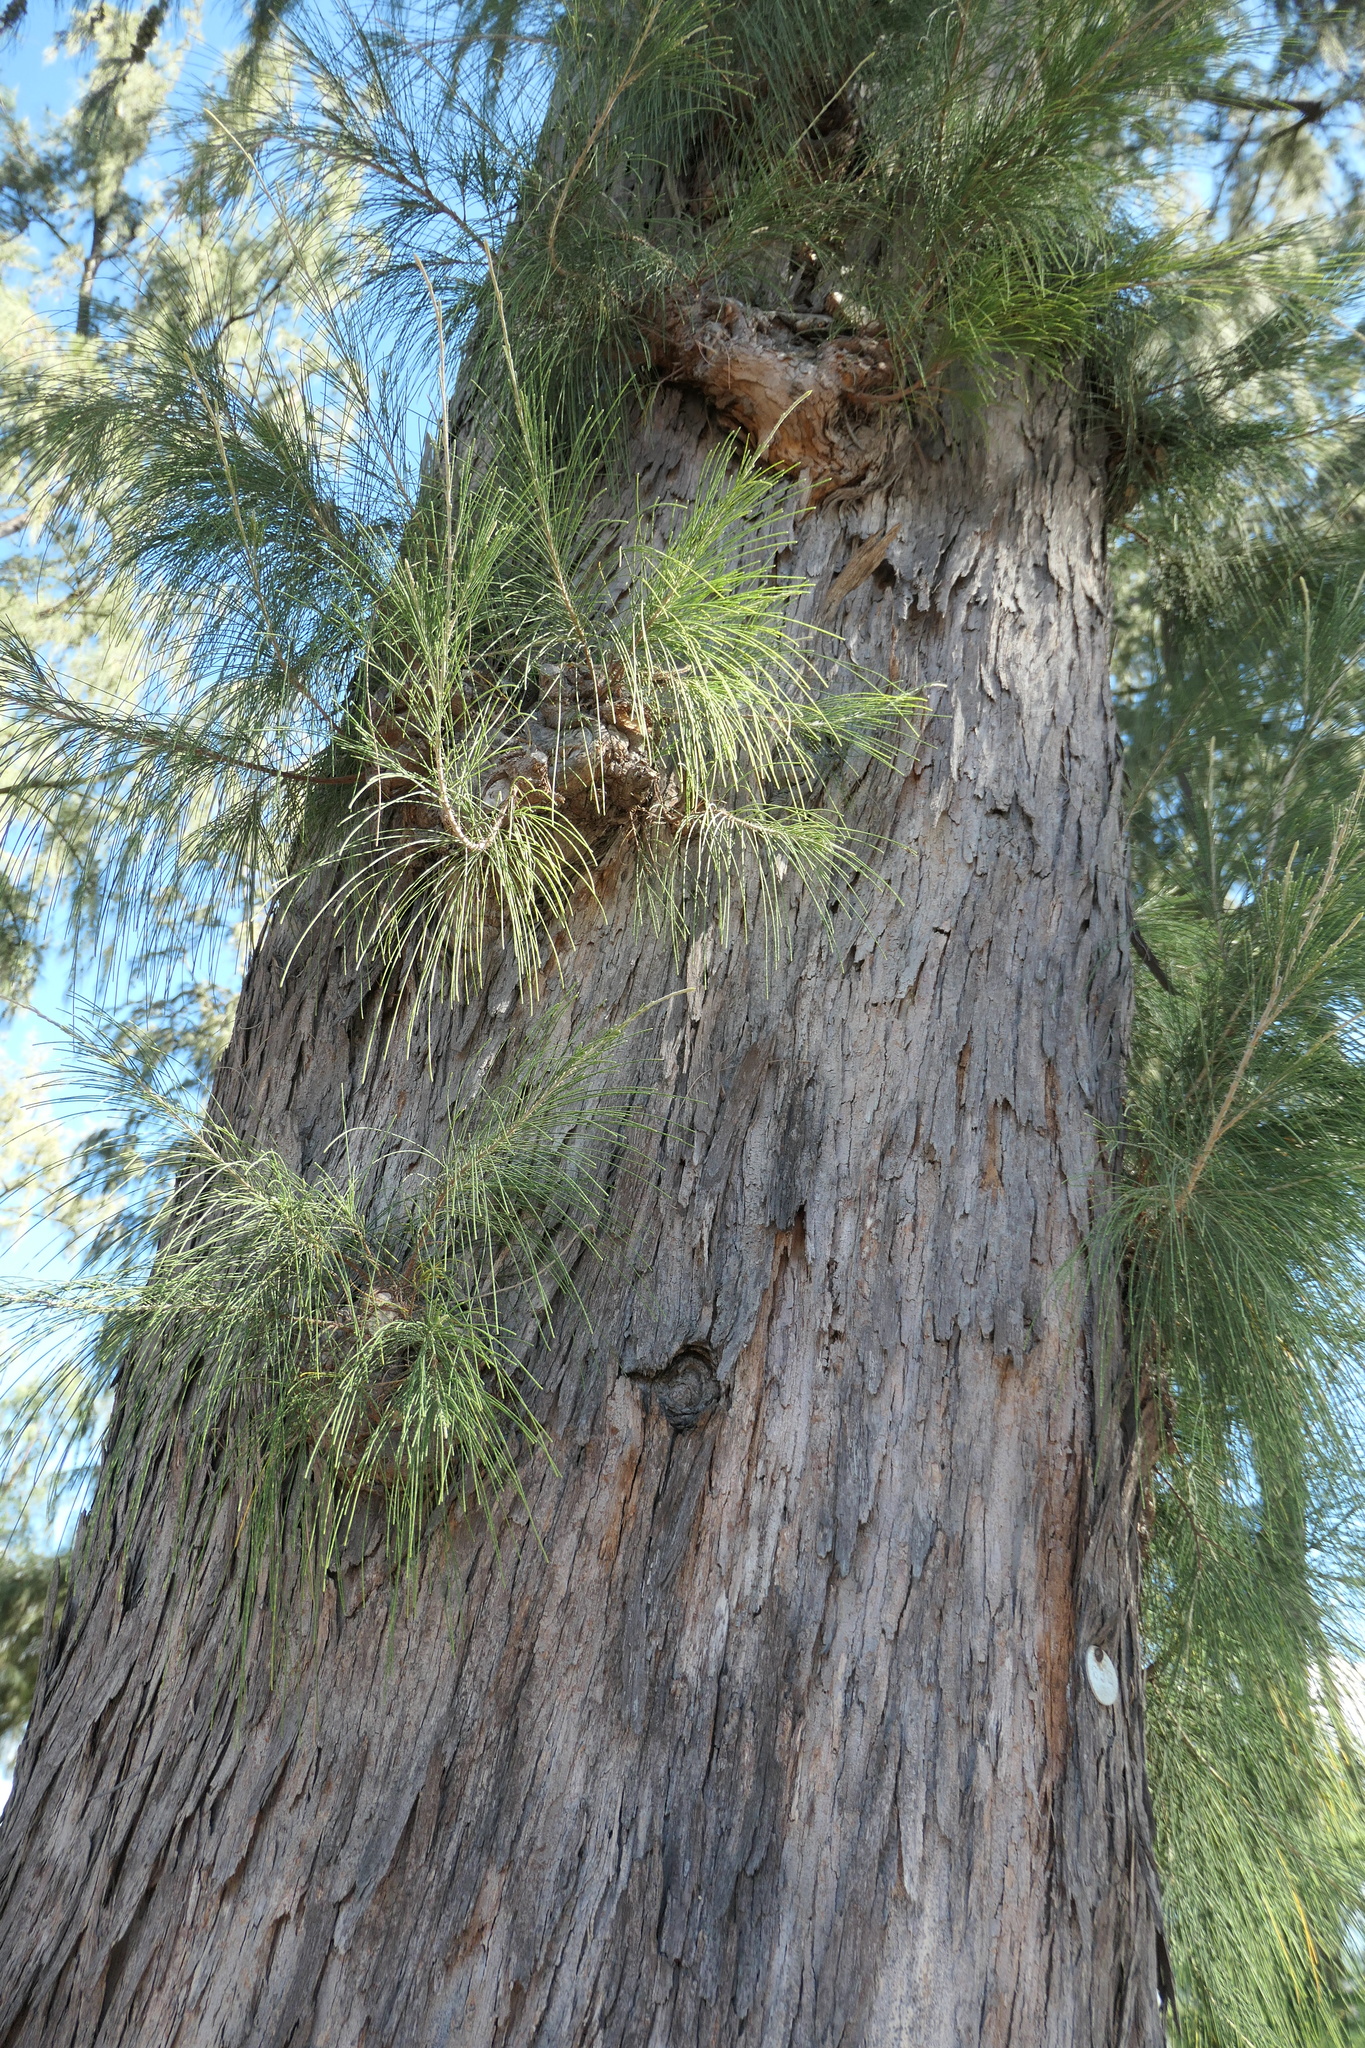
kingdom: Plantae
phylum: Tracheophyta
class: Magnoliopsida
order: Fagales
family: Casuarinaceae
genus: Casuarina
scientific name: Casuarina equisetifolia
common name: Beach sheoak
